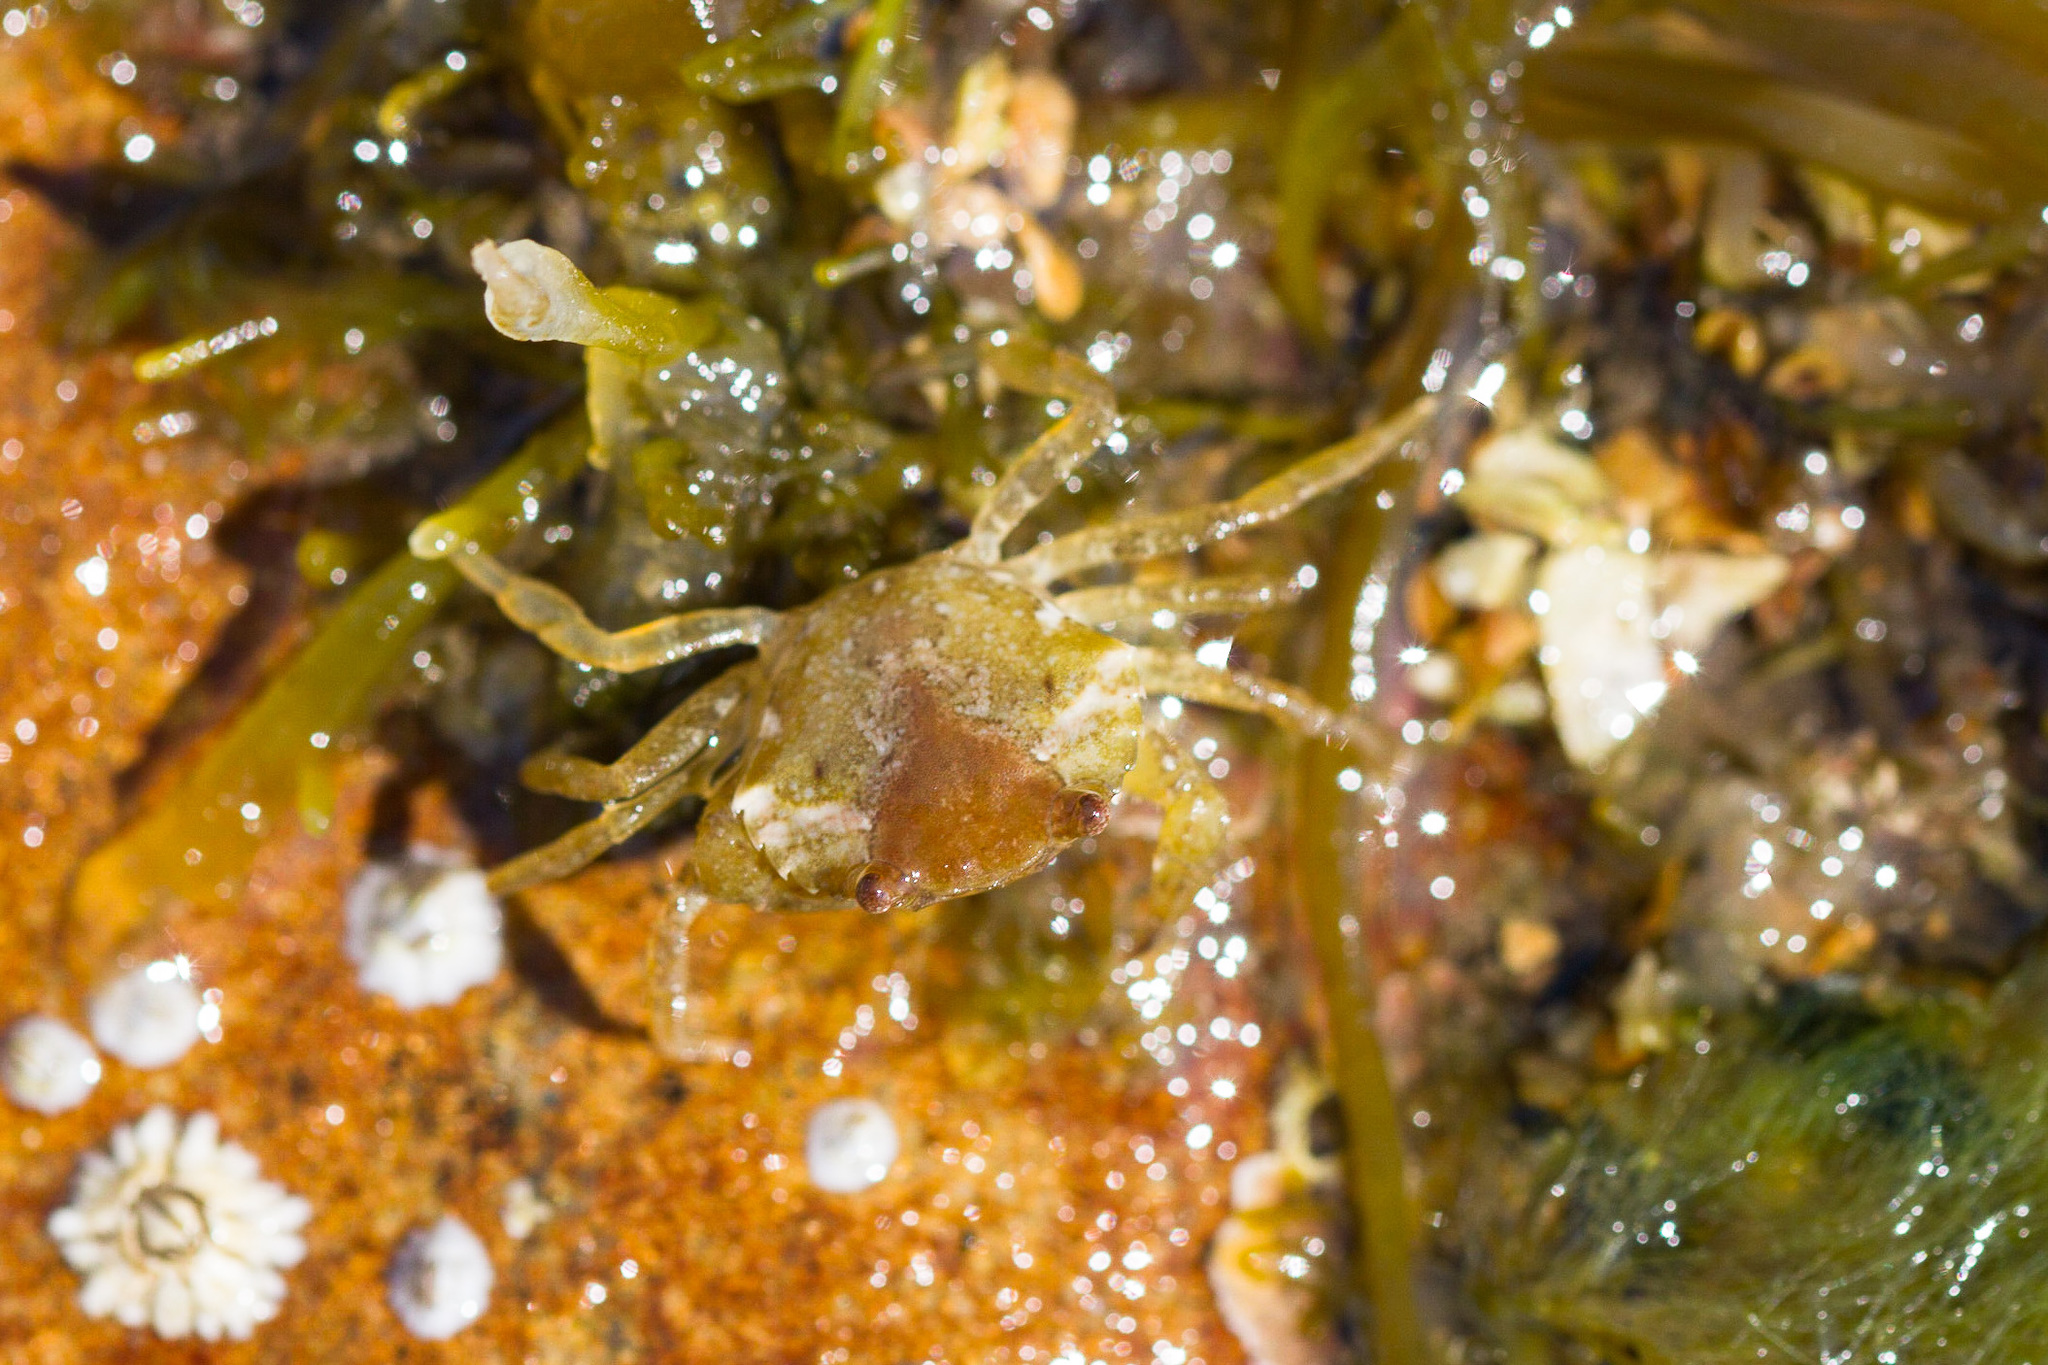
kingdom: Animalia
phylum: Arthropoda
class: Malacostraca
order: Decapoda
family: Carcinidae
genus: Carcinus
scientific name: Carcinus maenas
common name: European green crab
